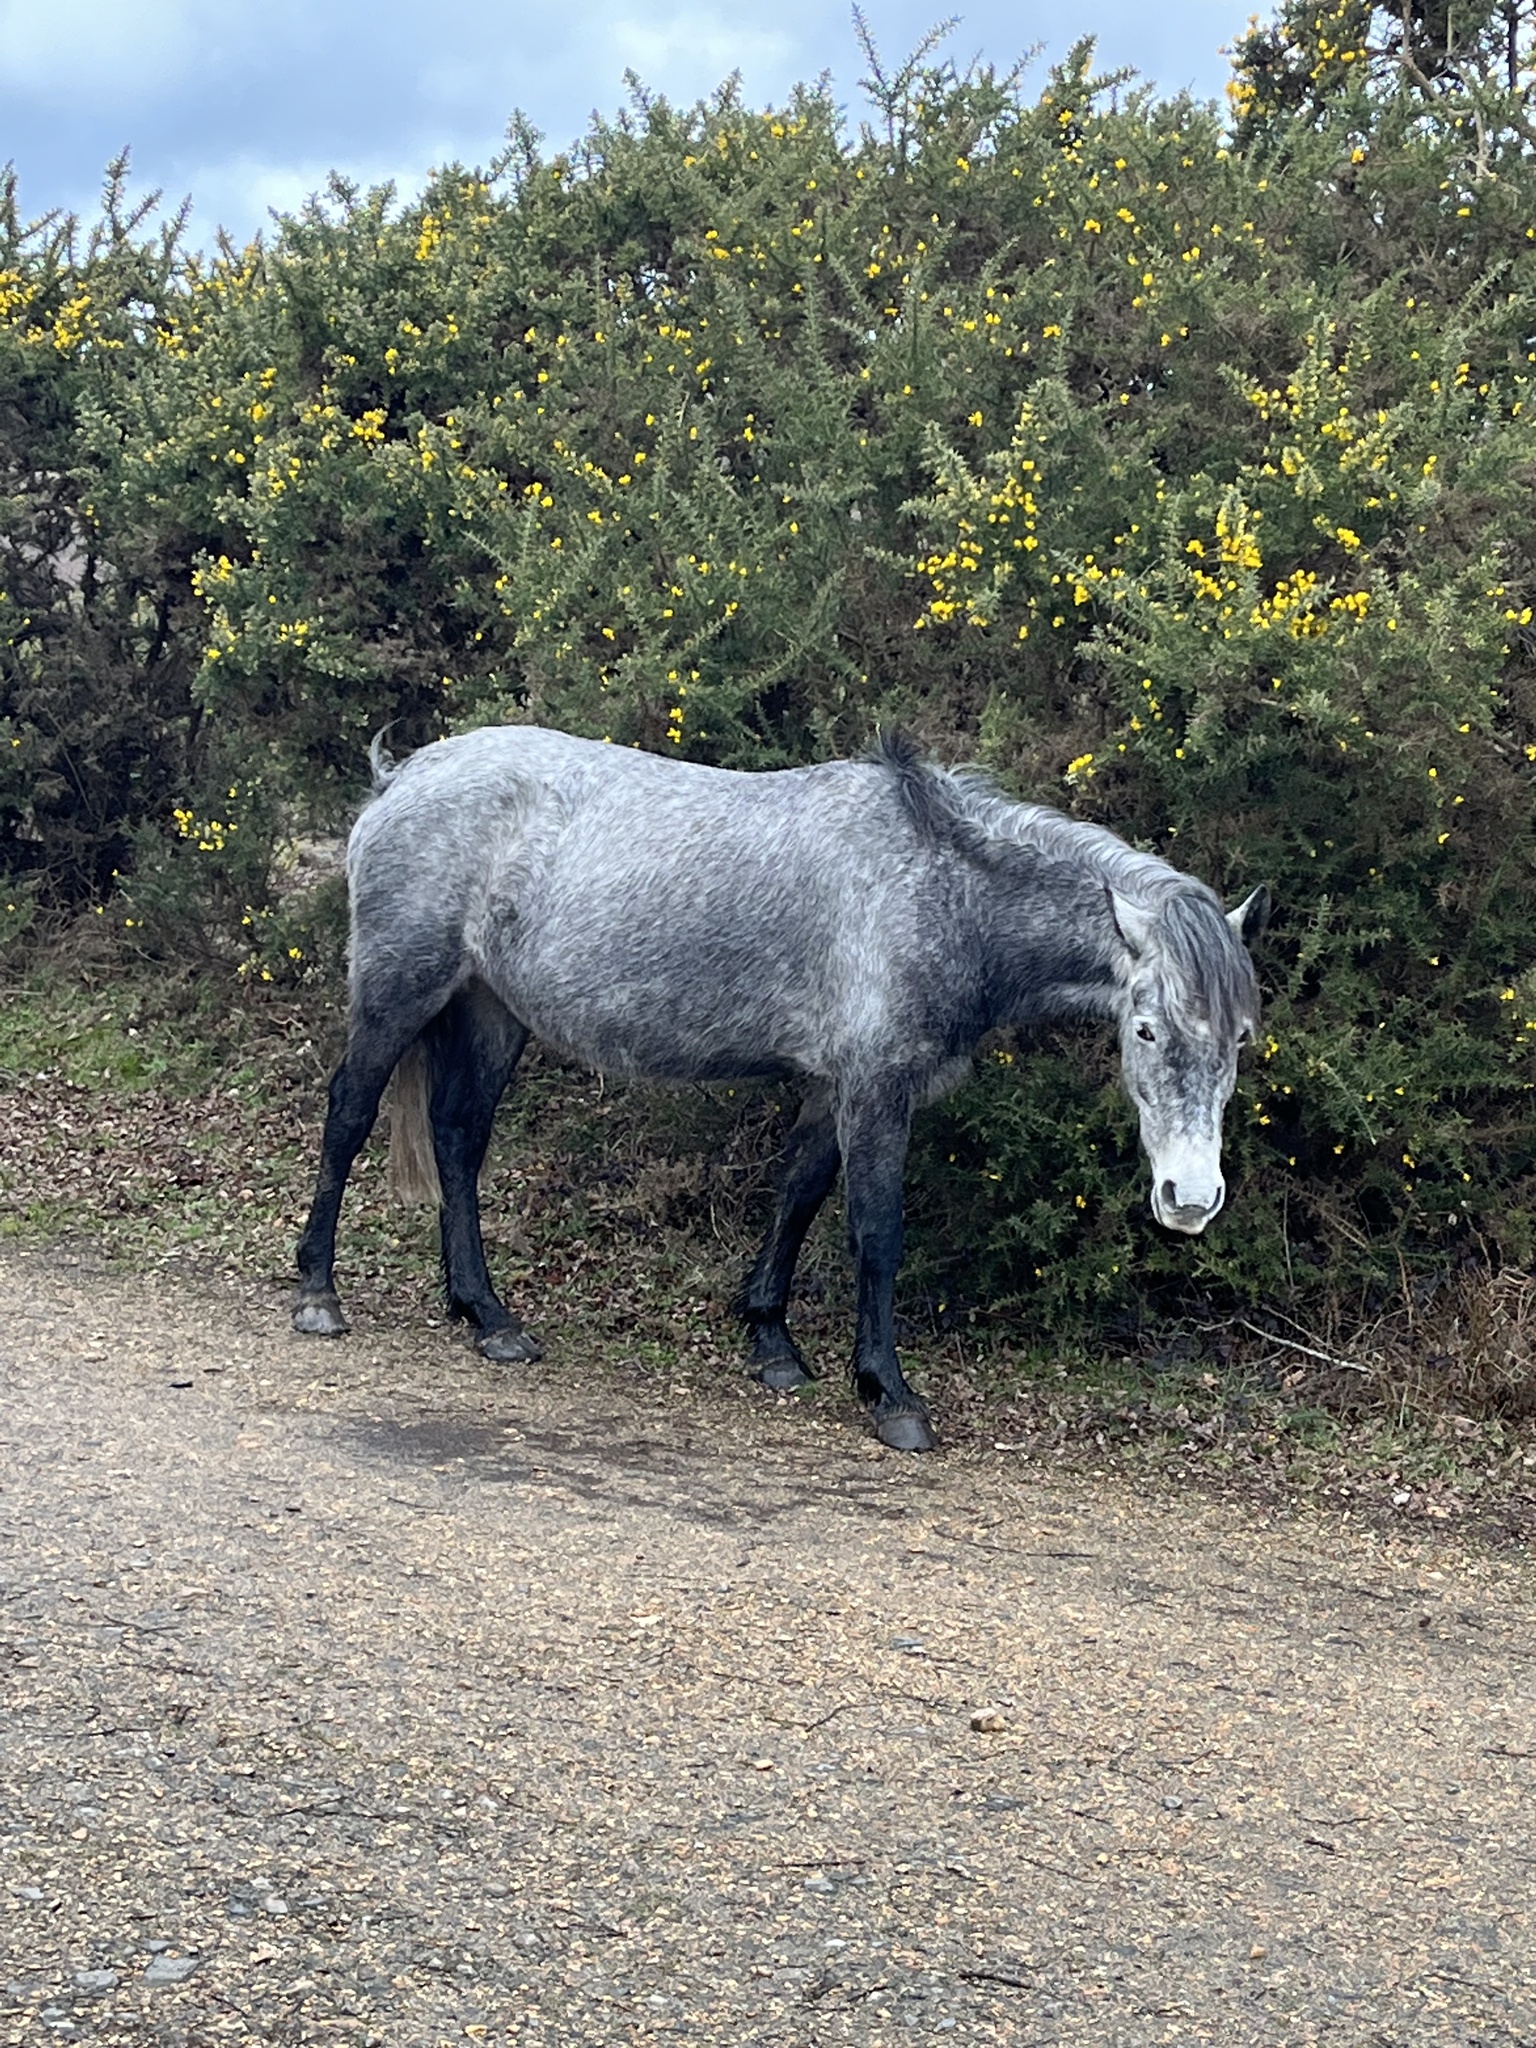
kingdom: Animalia
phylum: Chordata
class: Mammalia
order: Perissodactyla
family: Equidae
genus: Equus
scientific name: Equus caballus
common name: Horse
